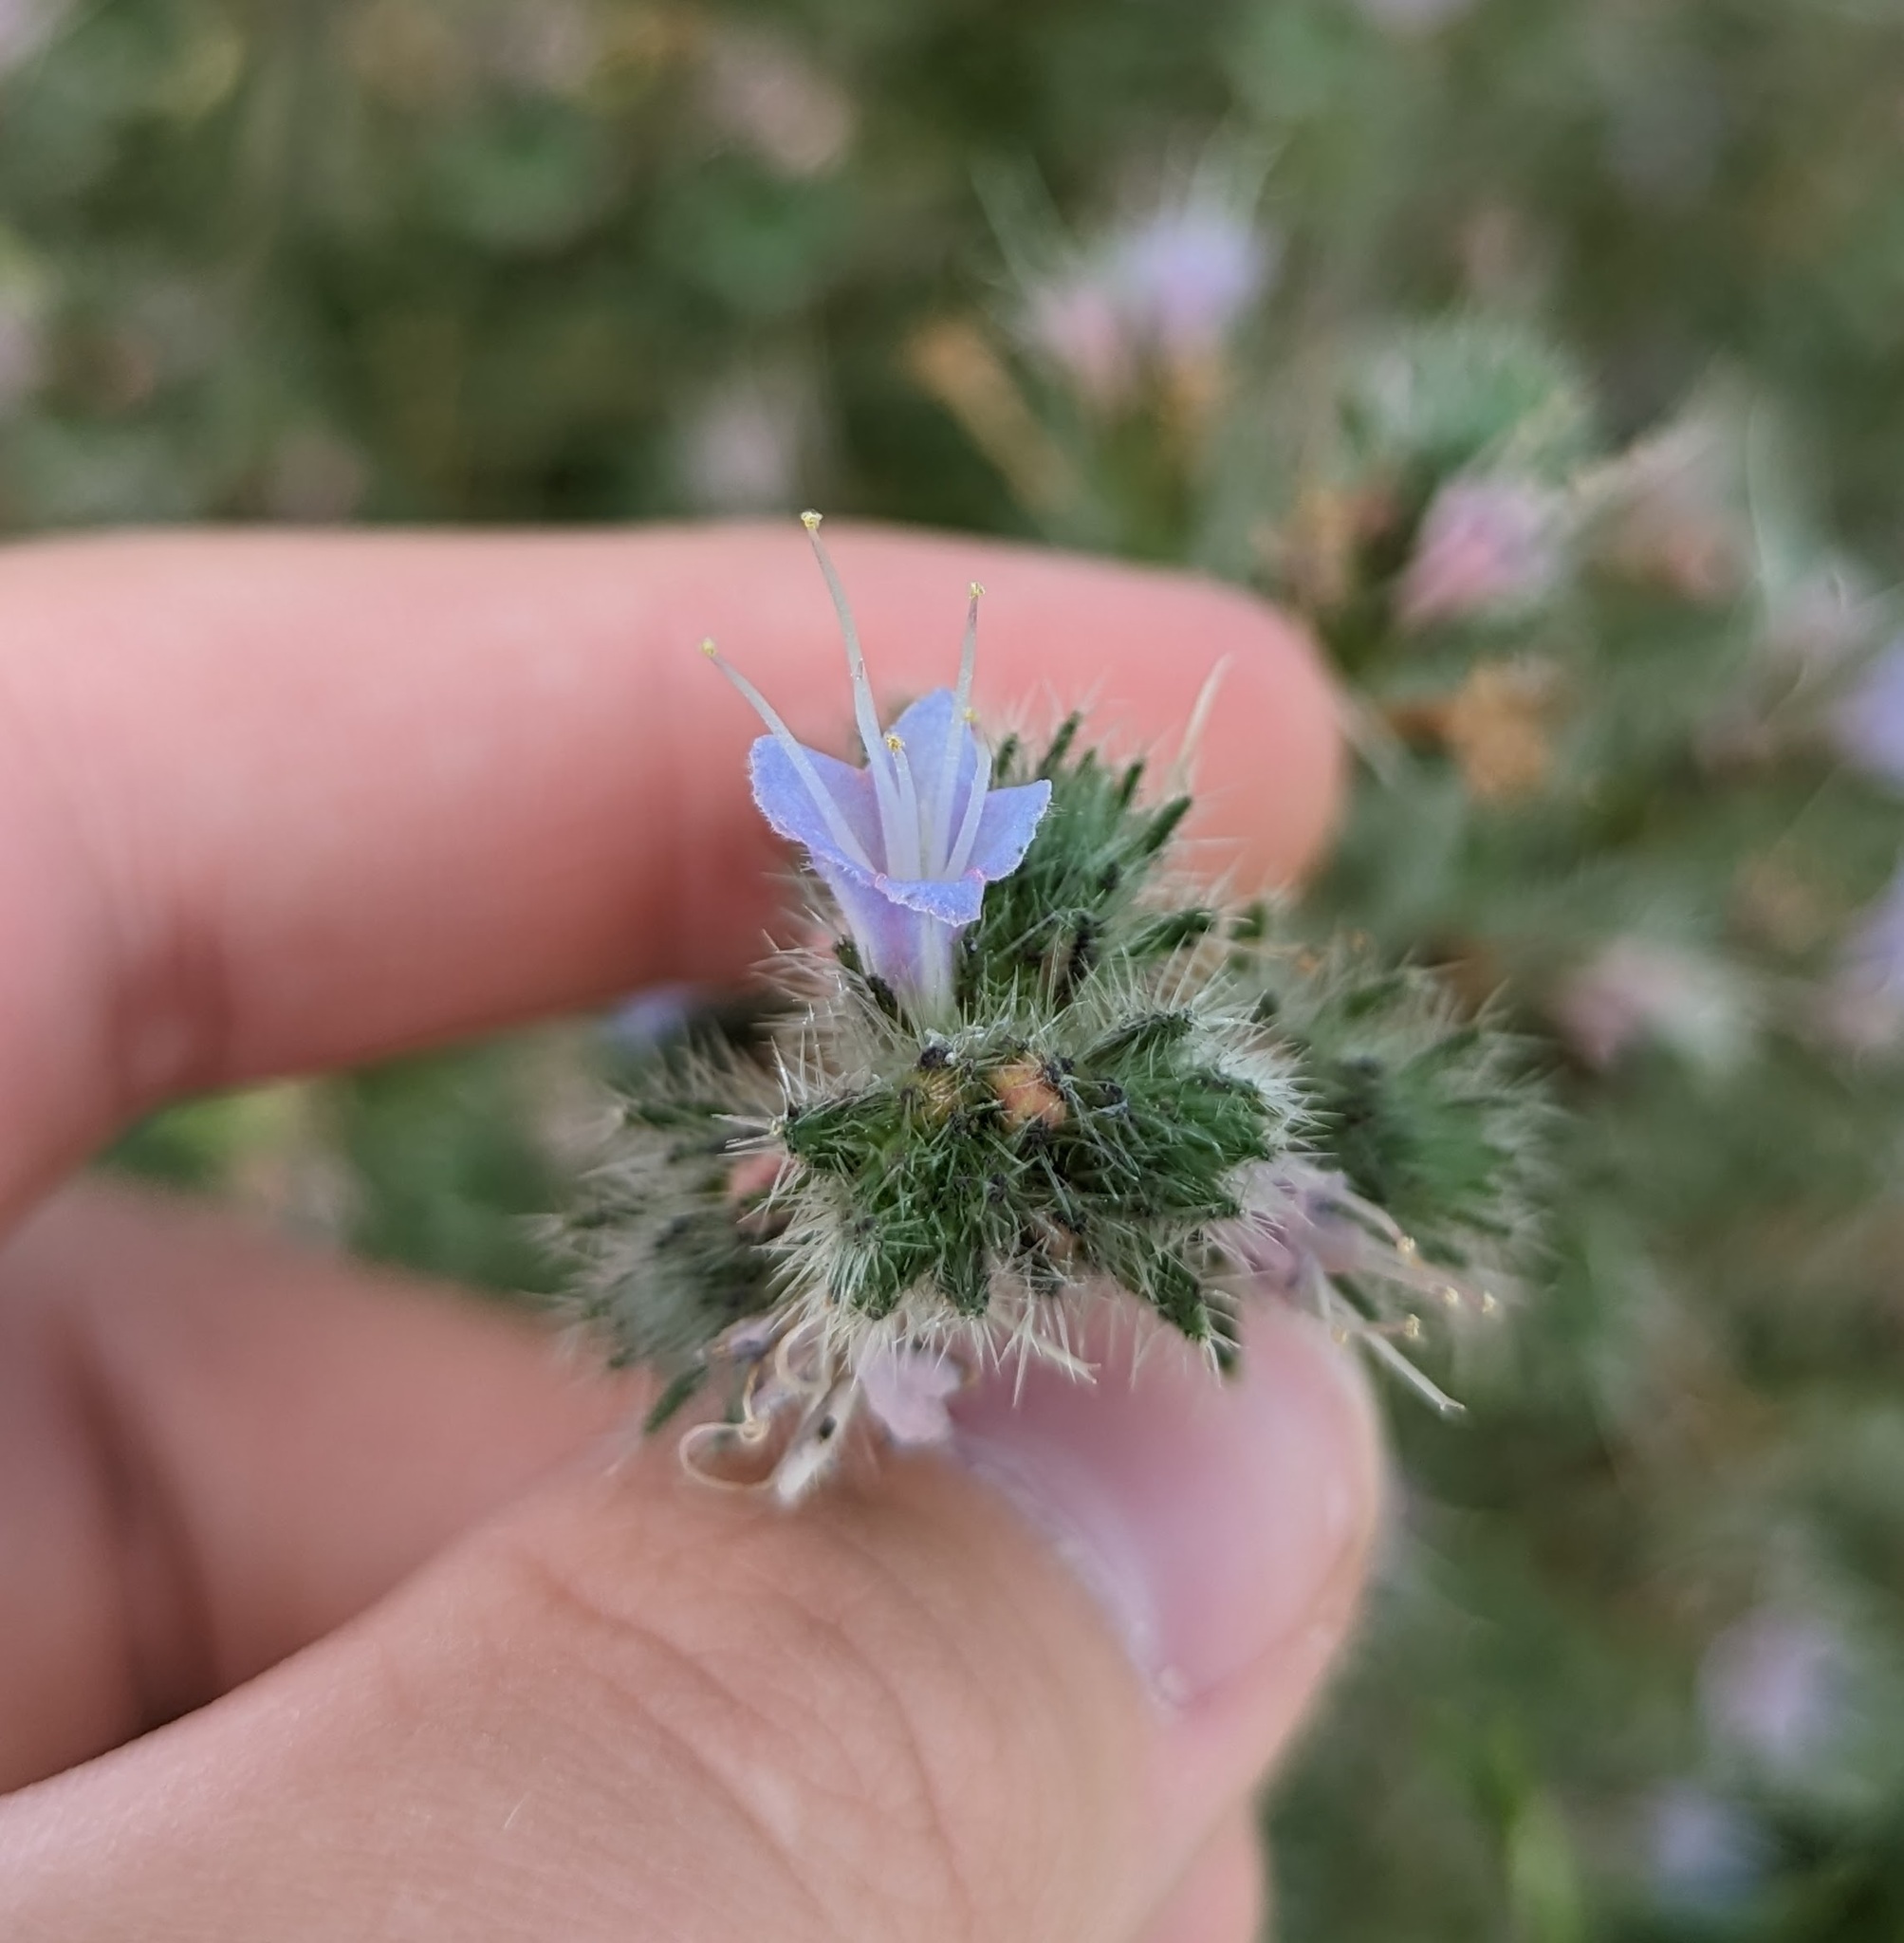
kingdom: Plantae
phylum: Tracheophyta
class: Magnoliopsida
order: Boraginales
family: Boraginaceae
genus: Echium
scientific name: Echium italicum
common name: Italian viper's bugloss
